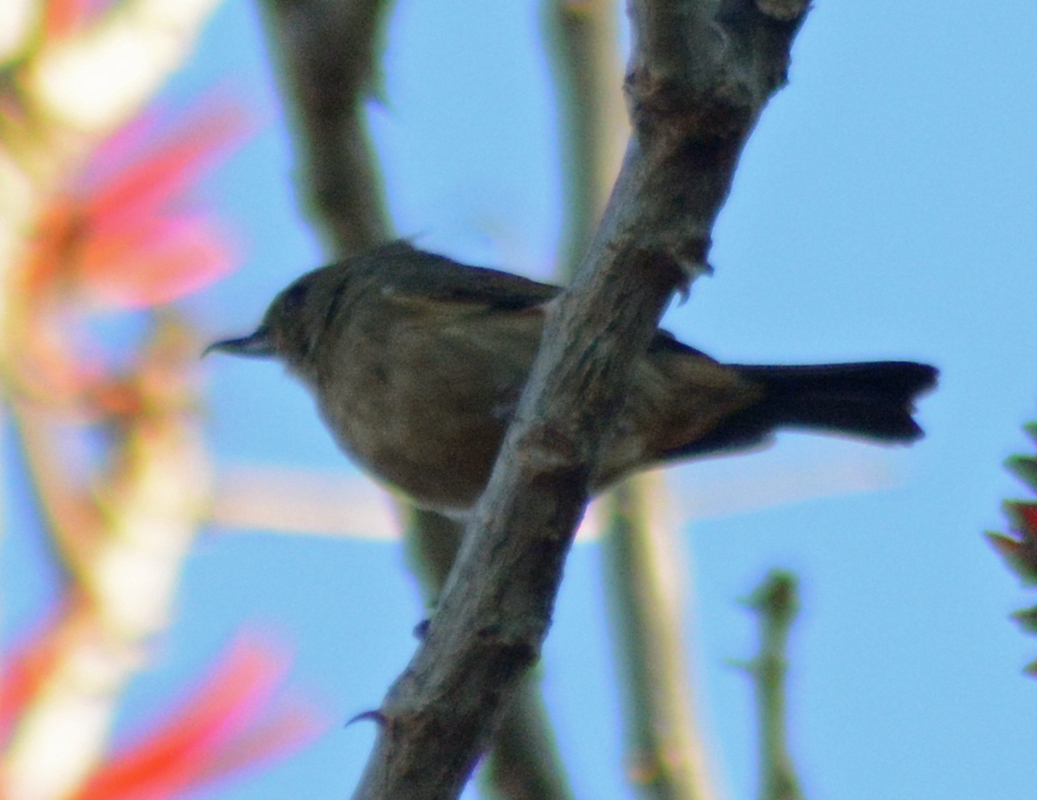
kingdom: Animalia
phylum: Chordata
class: Aves
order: Passeriformes
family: Thraupidae
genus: Diglossa
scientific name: Diglossa baritula
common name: Cinnamon-bellied flowerpiercer
